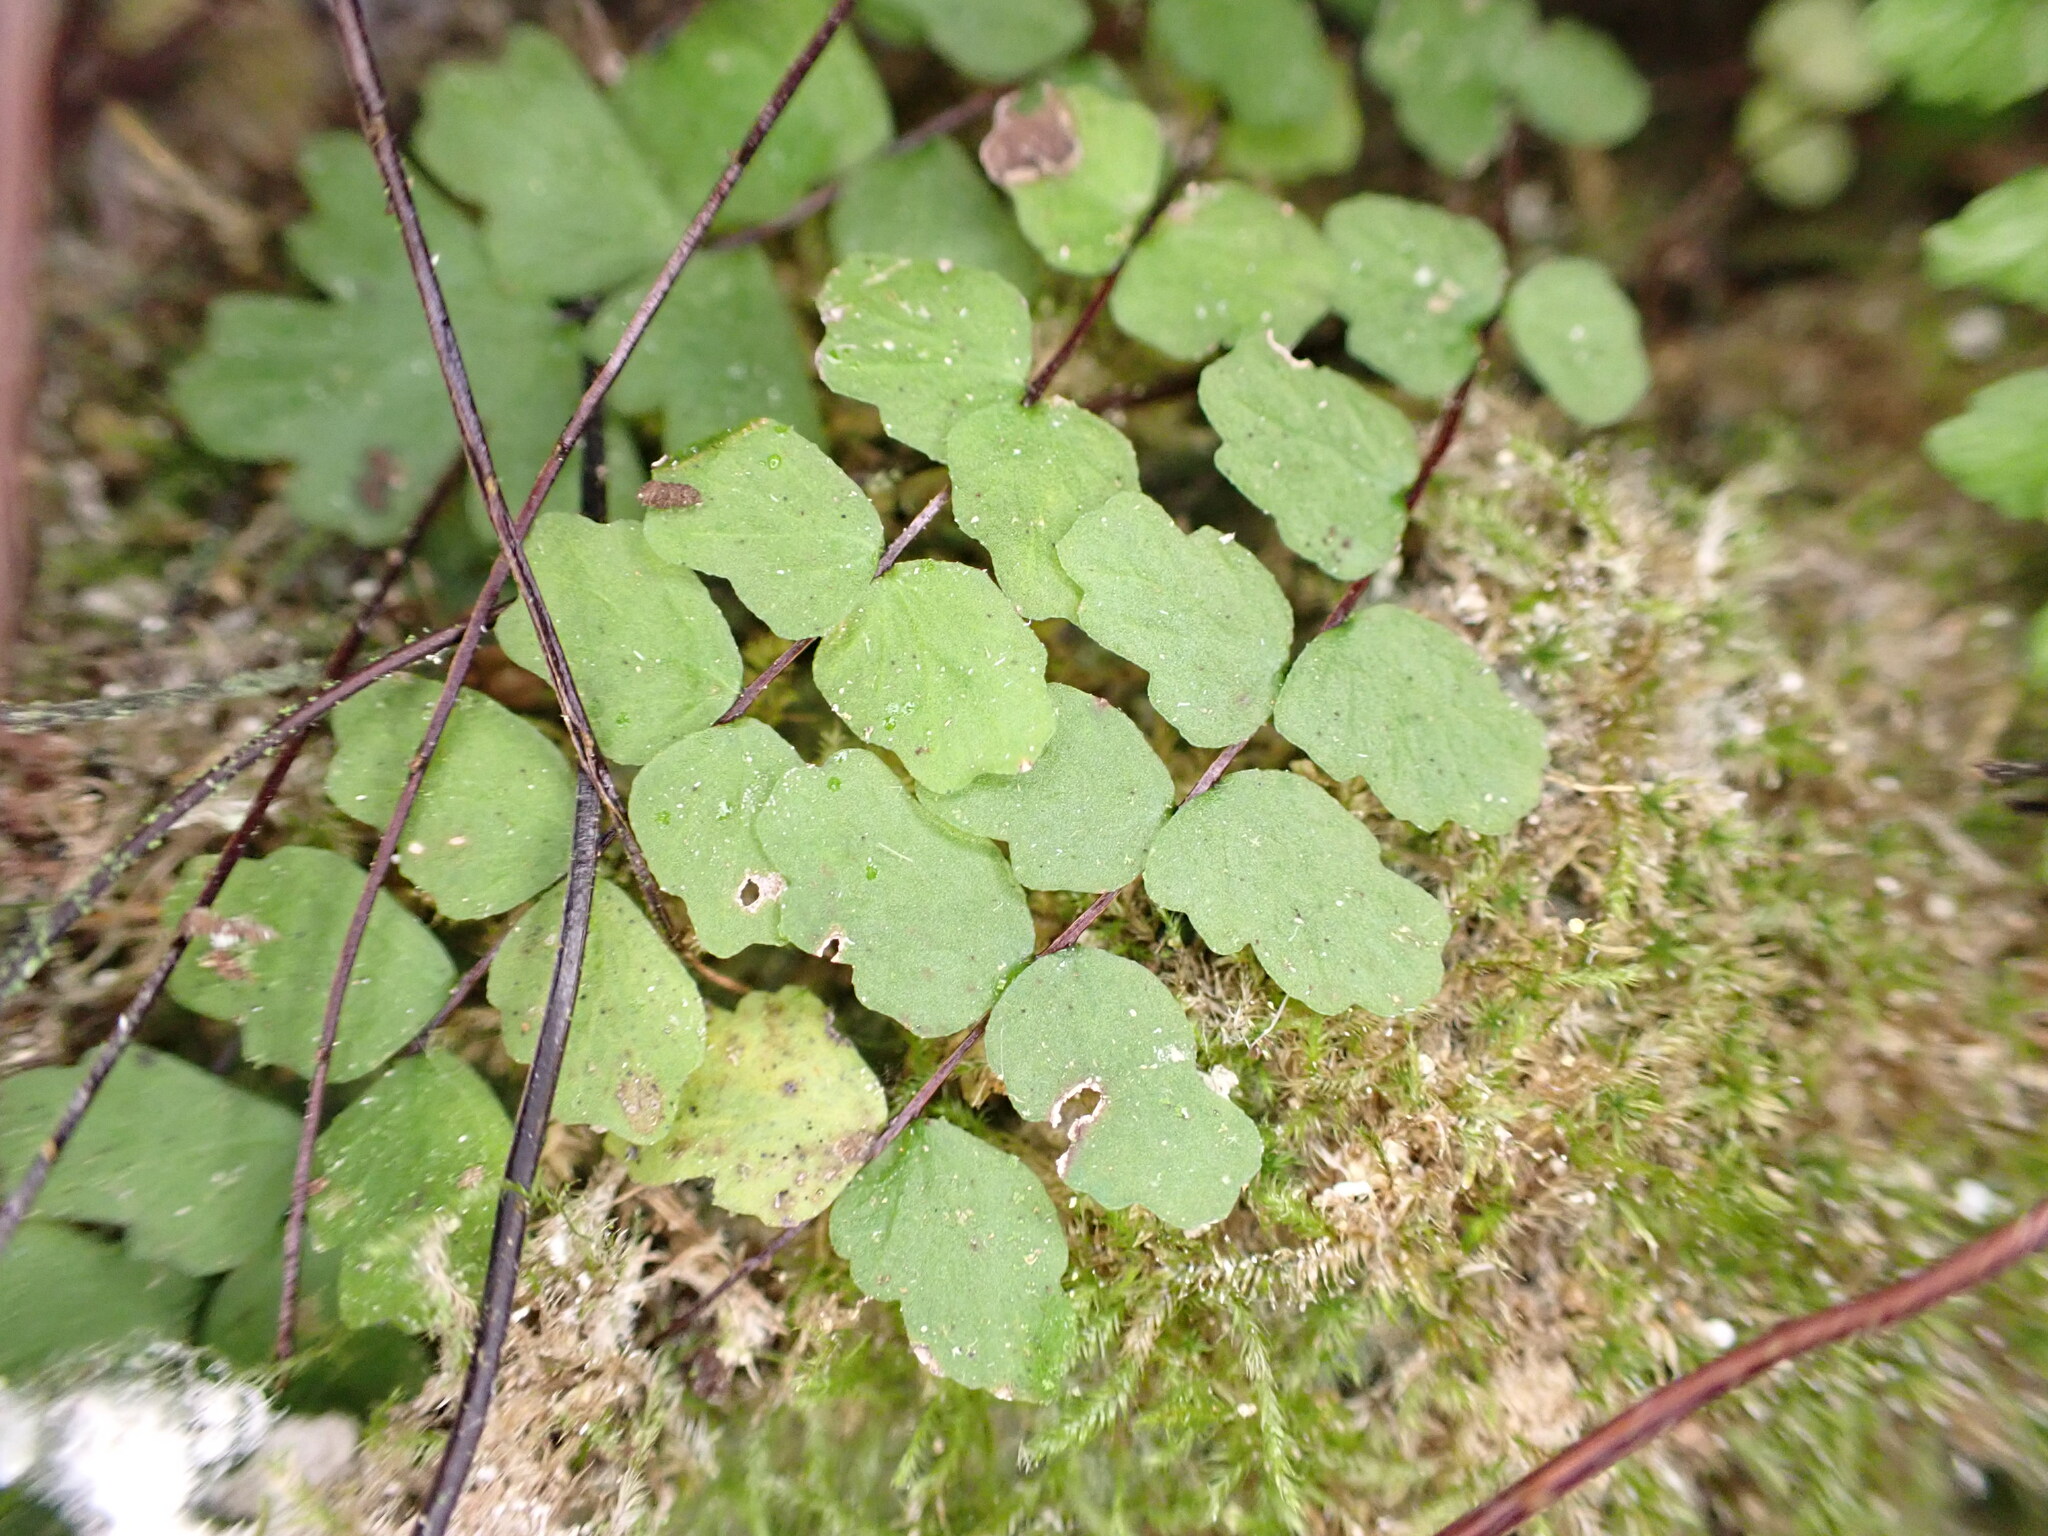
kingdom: Plantae
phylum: Tracheophyta
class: Polypodiopsida
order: Polypodiales
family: Aspleniaceae
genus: Asplenium
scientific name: Asplenium trichomanes
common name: Maidenhair spleenwort
